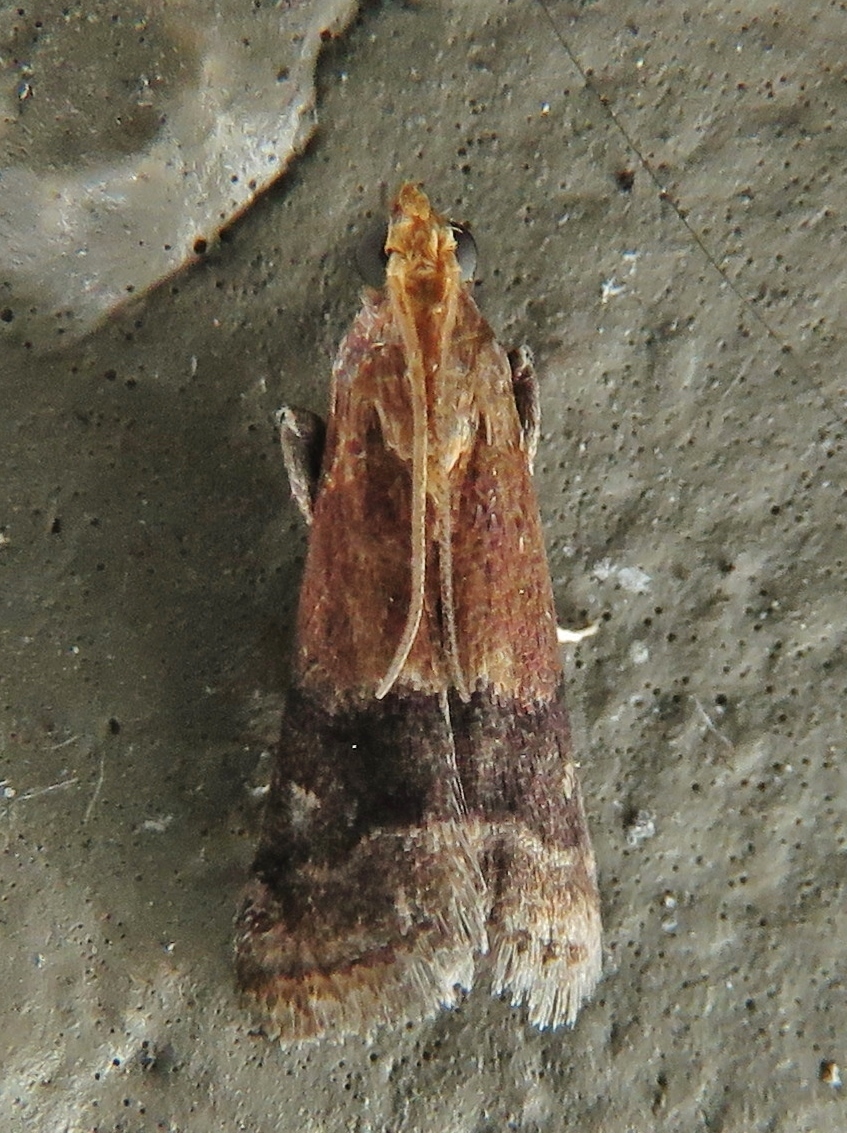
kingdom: Animalia
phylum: Arthropoda
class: Insecta
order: Lepidoptera
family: Pyralidae
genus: Eulogia
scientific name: Eulogia ochrifrontella
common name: Broad-banded eulogia moth
